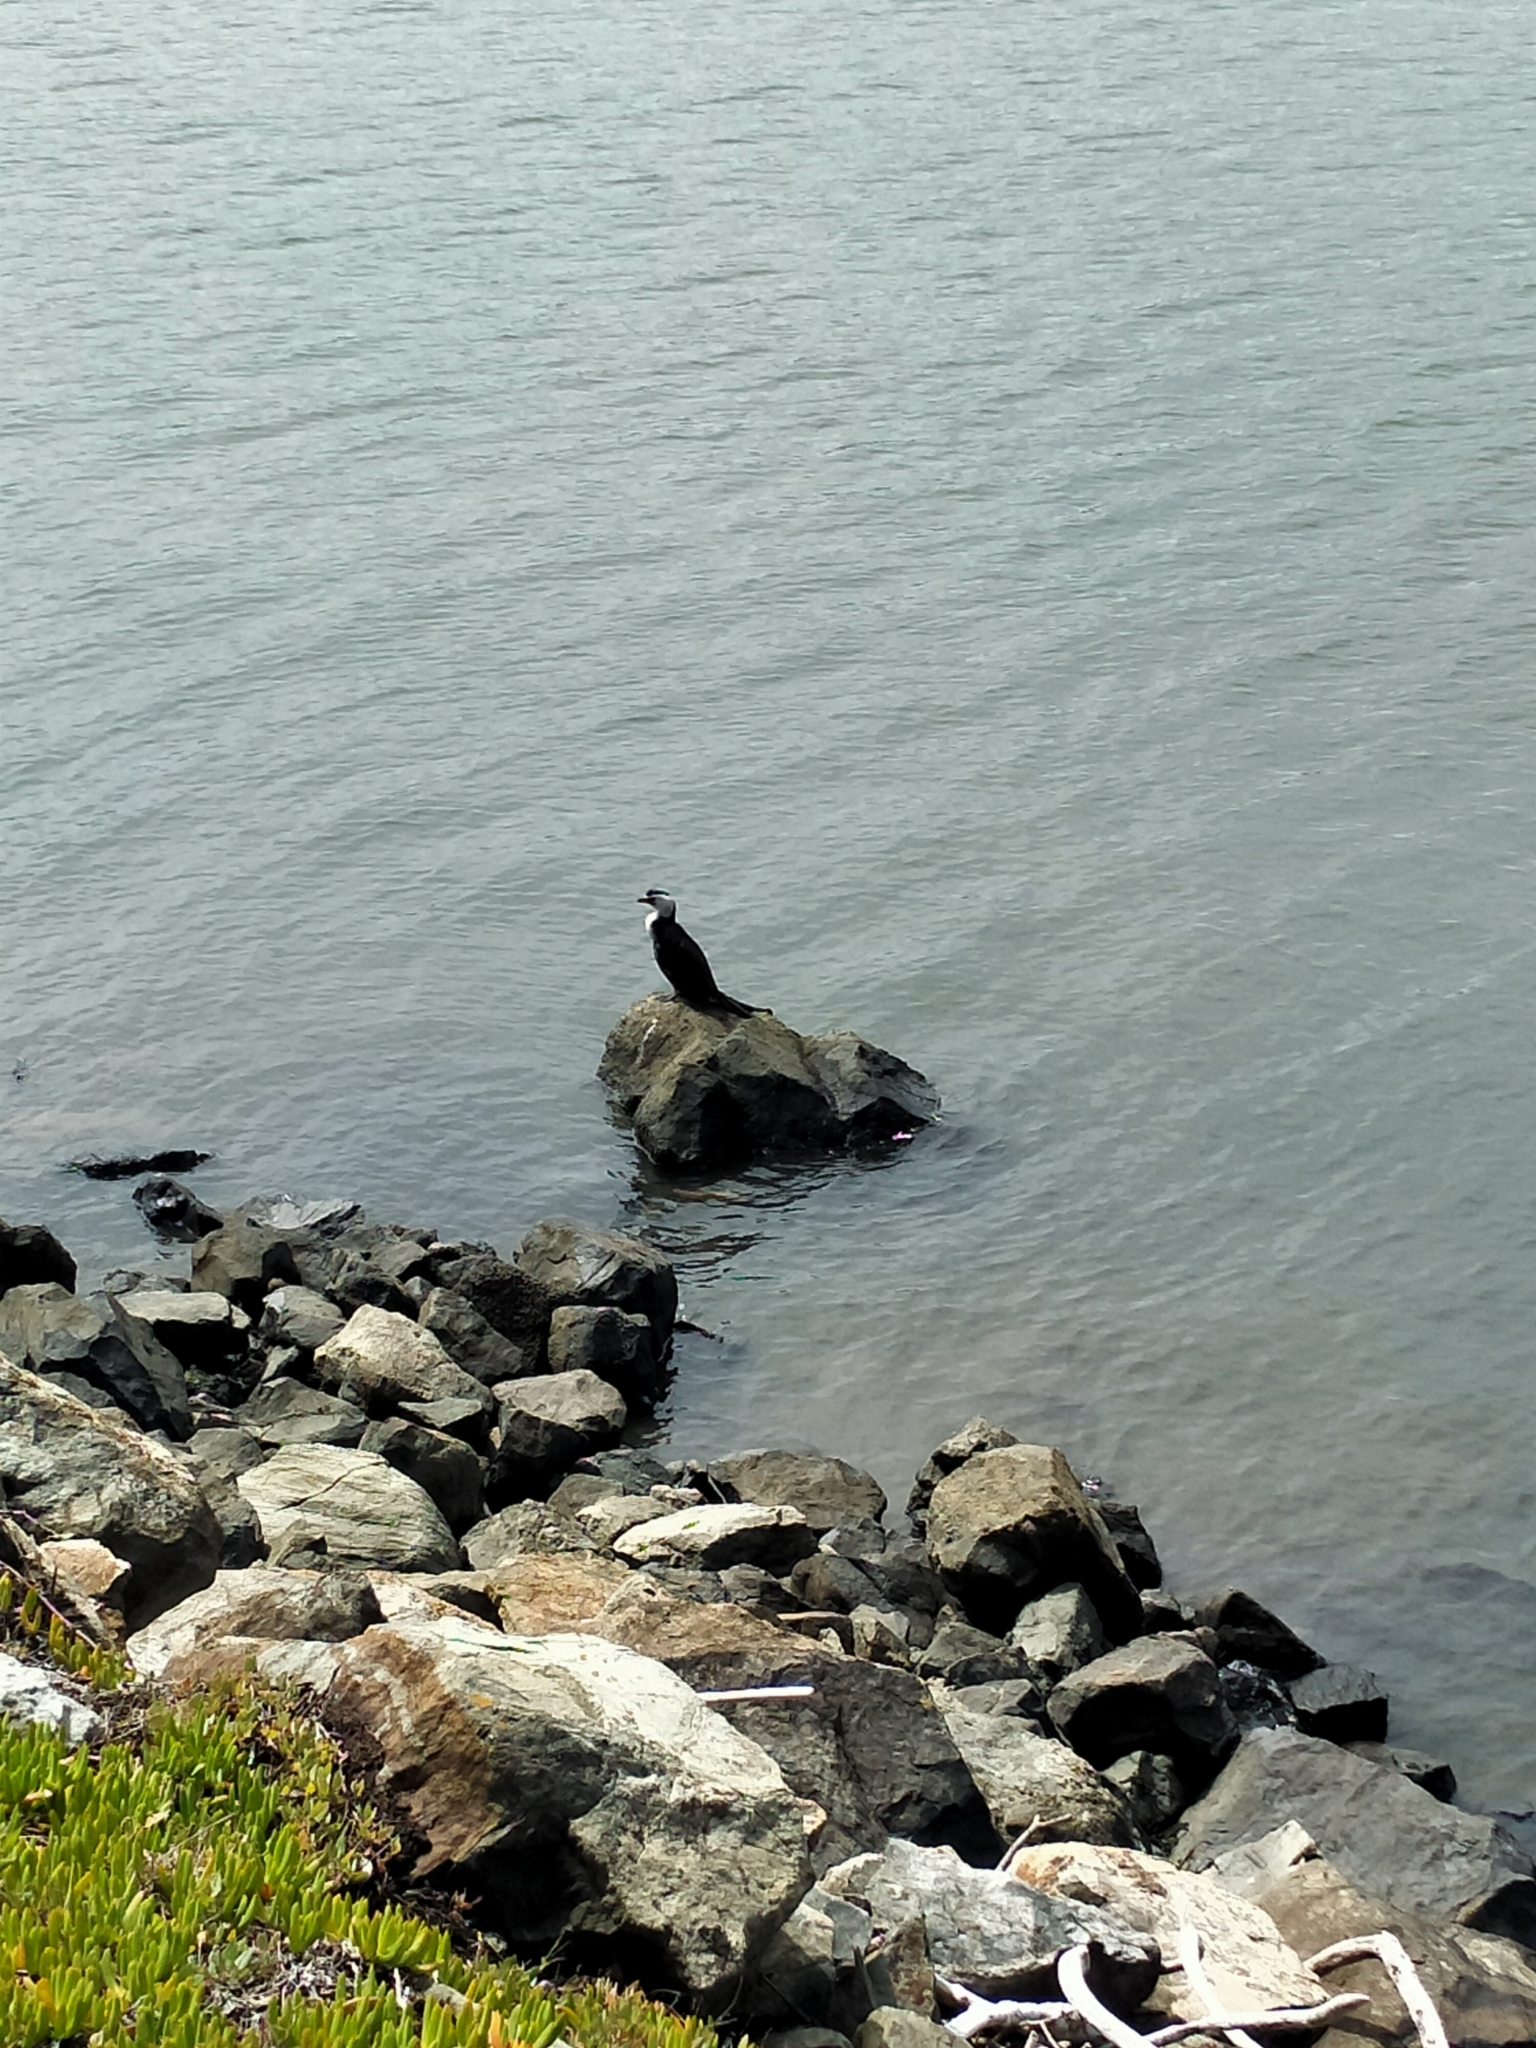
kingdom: Animalia
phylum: Chordata
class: Aves
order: Suliformes
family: Phalacrocoracidae
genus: Microcarbo
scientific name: Microcarbo melanoleucos
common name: Little pied cormorant
